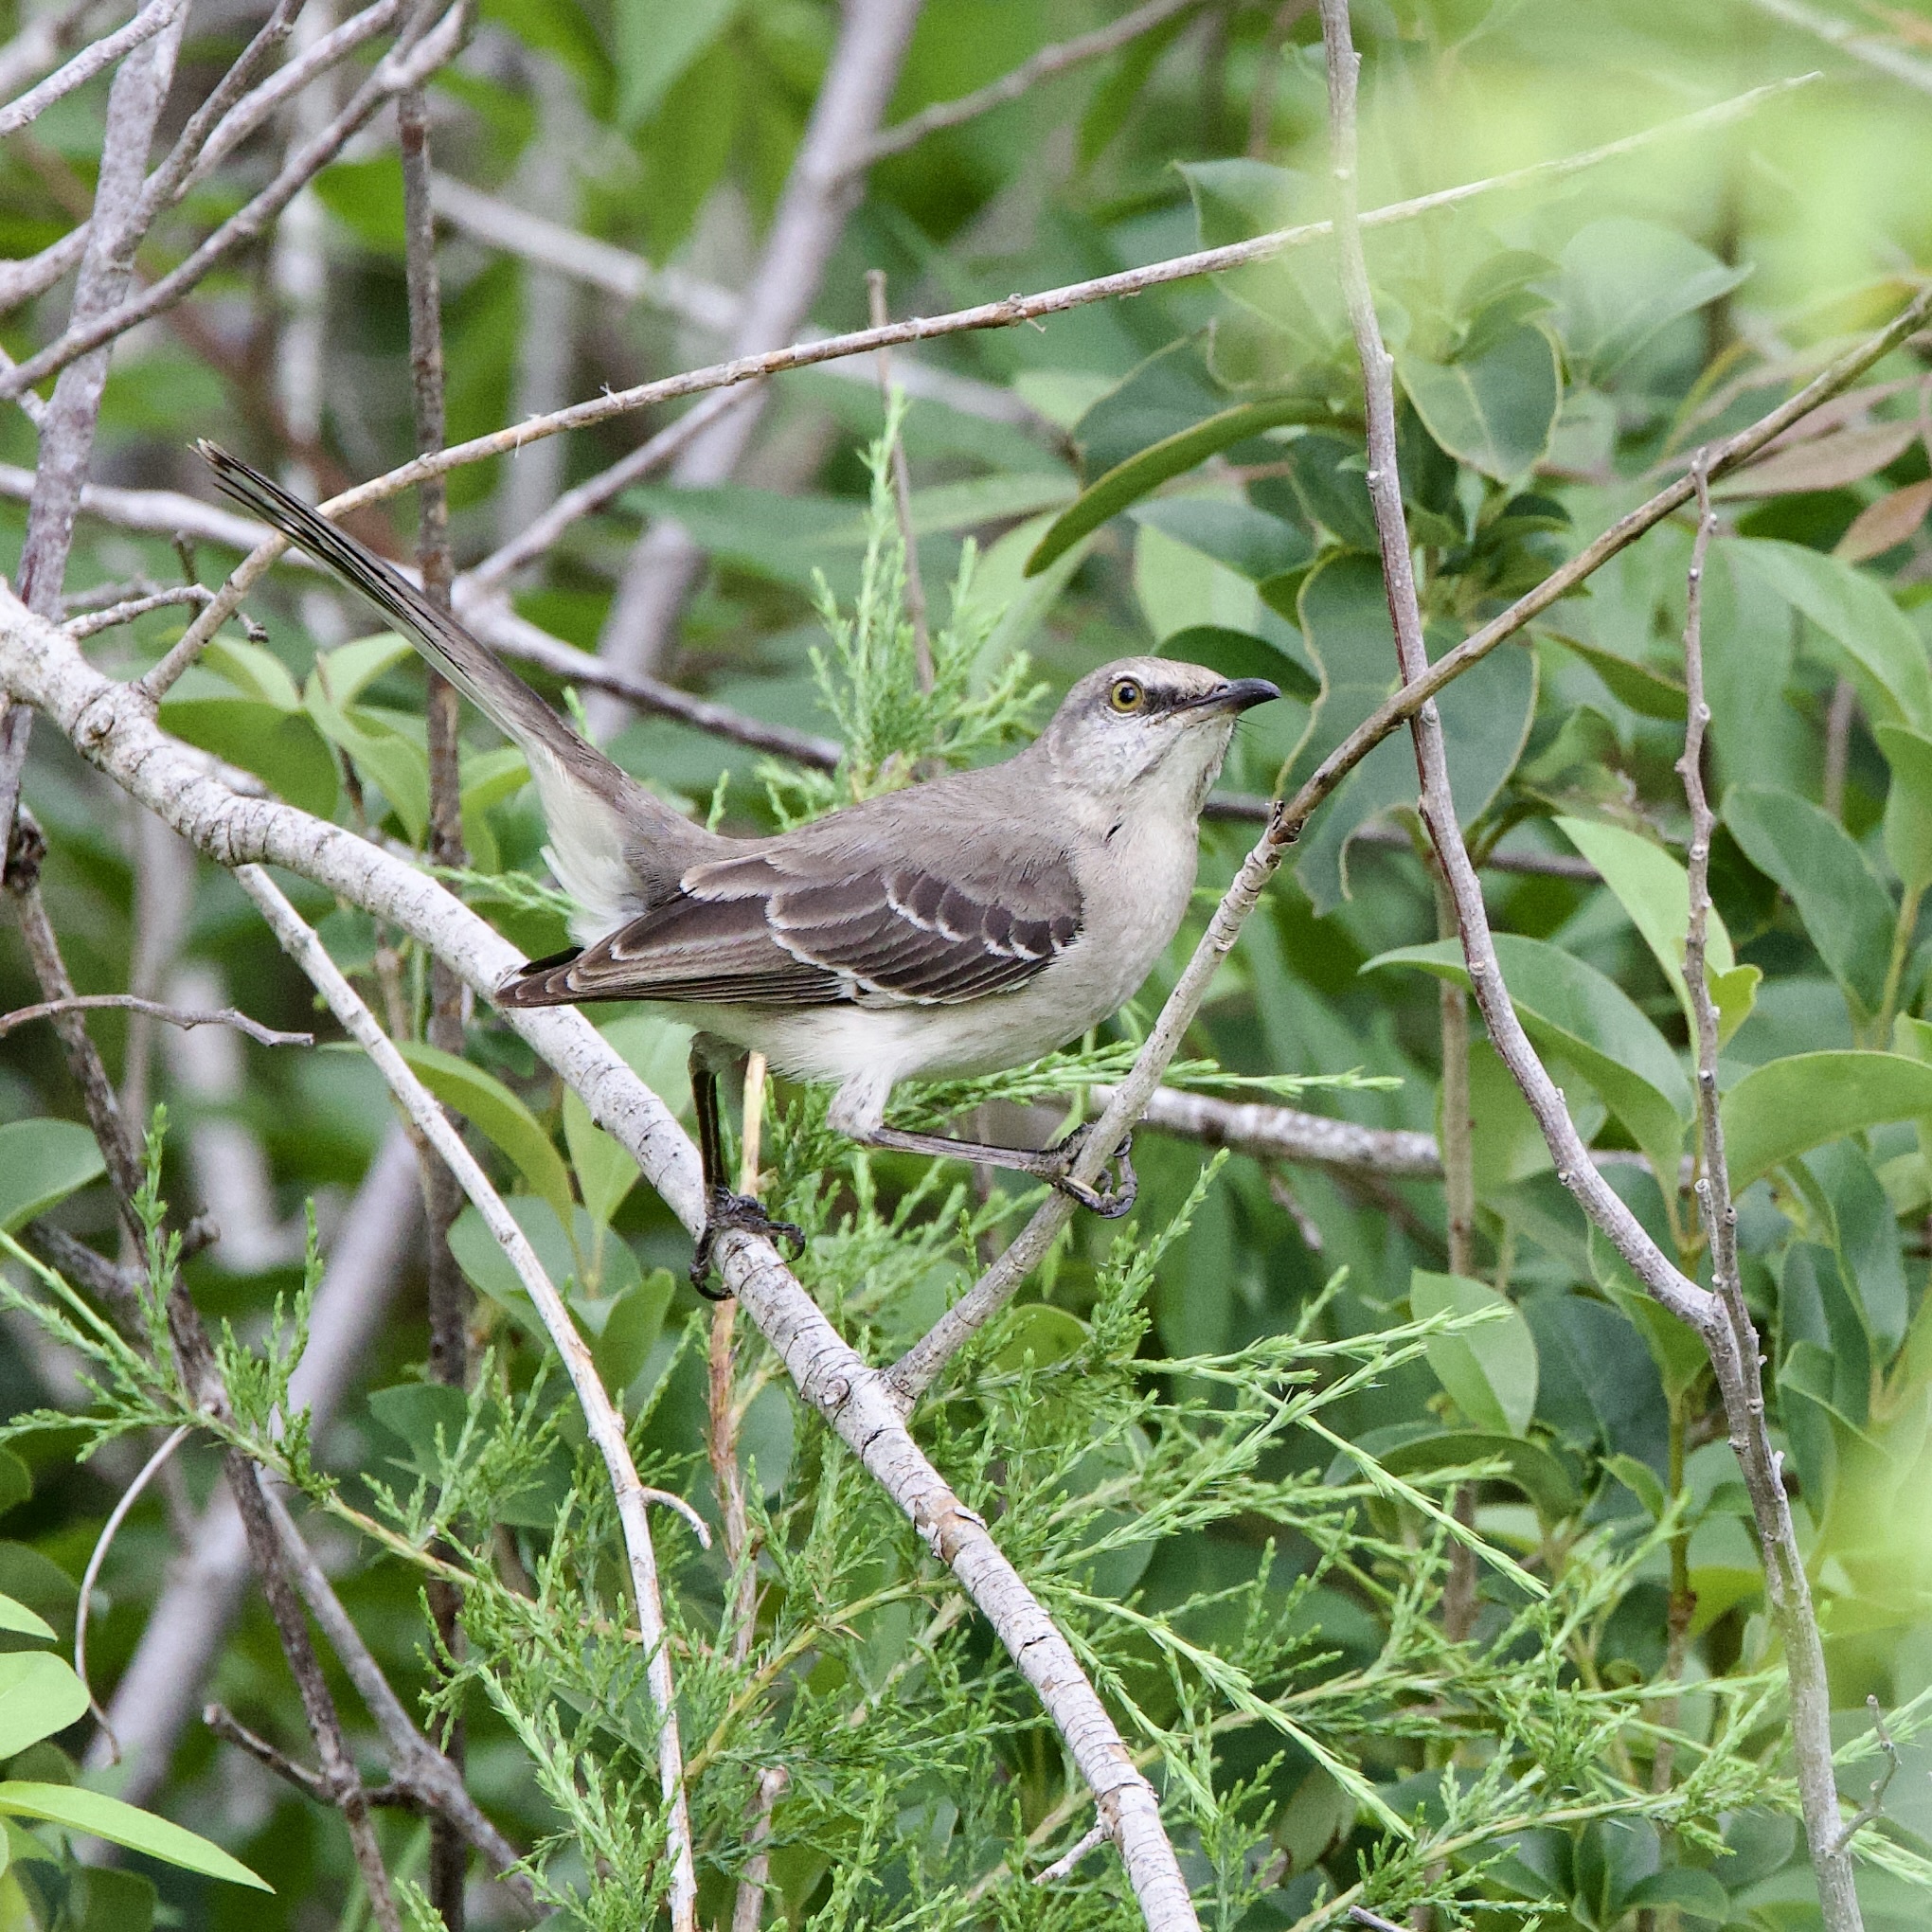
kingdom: Animalia
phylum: Chordata
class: Aves
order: Passeriformes
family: Mimidae
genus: Mimus
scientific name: Mimus polyglottos
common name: Northern mockingbird
